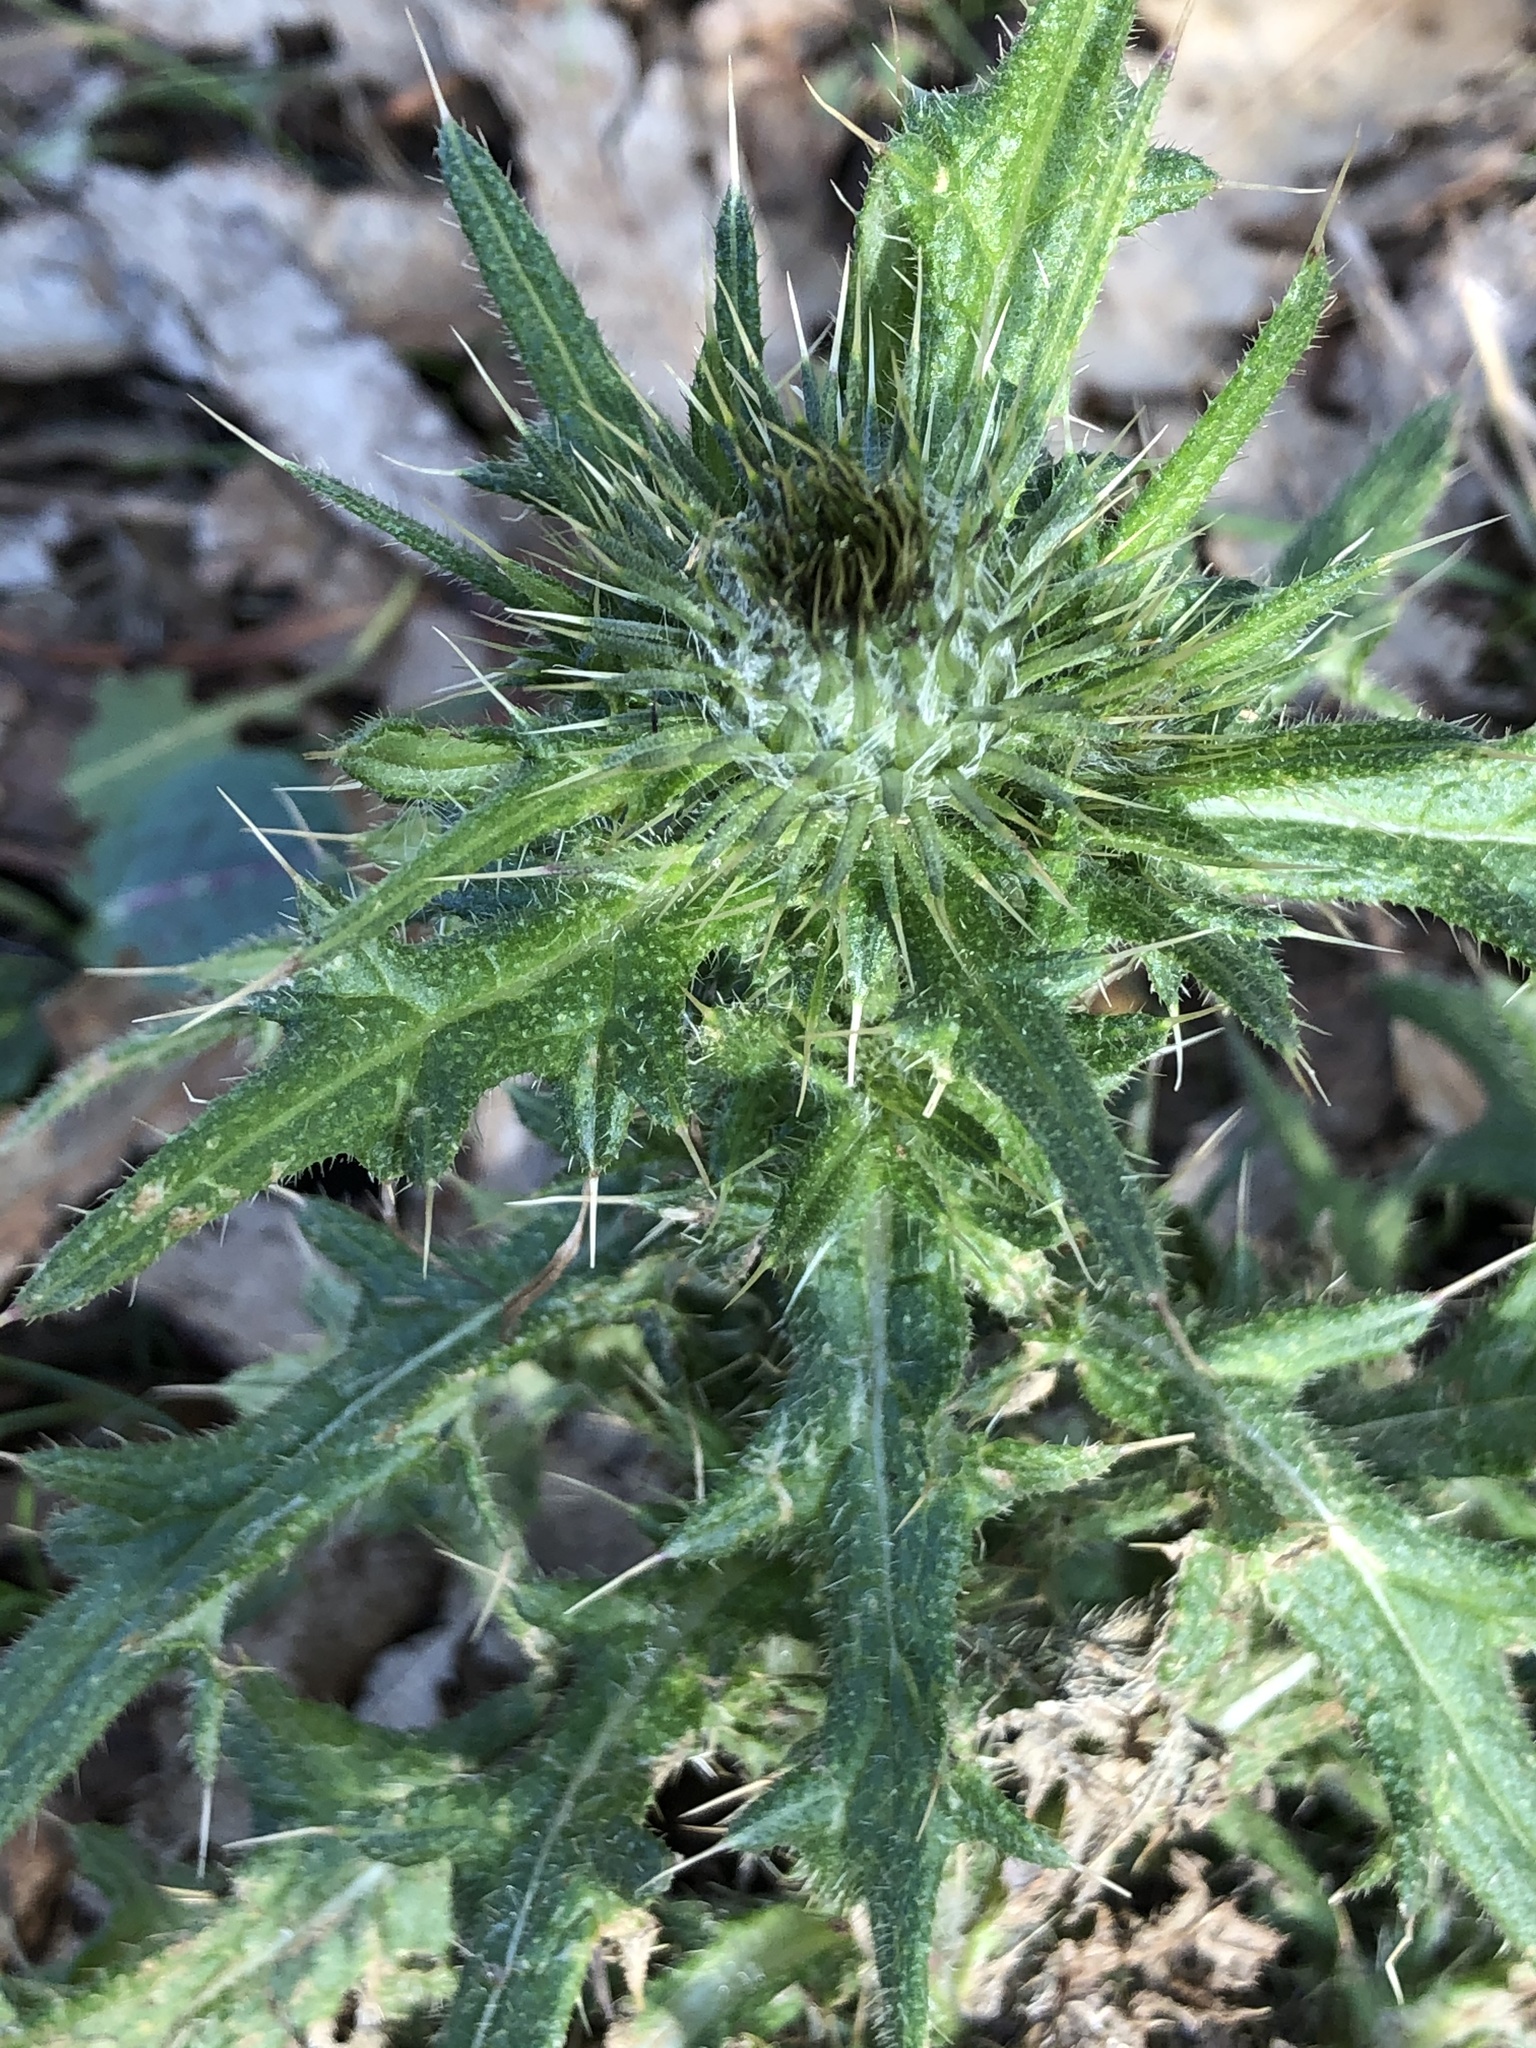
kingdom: Plantae
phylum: Tracheophyta
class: Magnoliopsida
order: Asterales
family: Asteraceae
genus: Cirsium
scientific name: Cirsium vulgare
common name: Bull thistle
